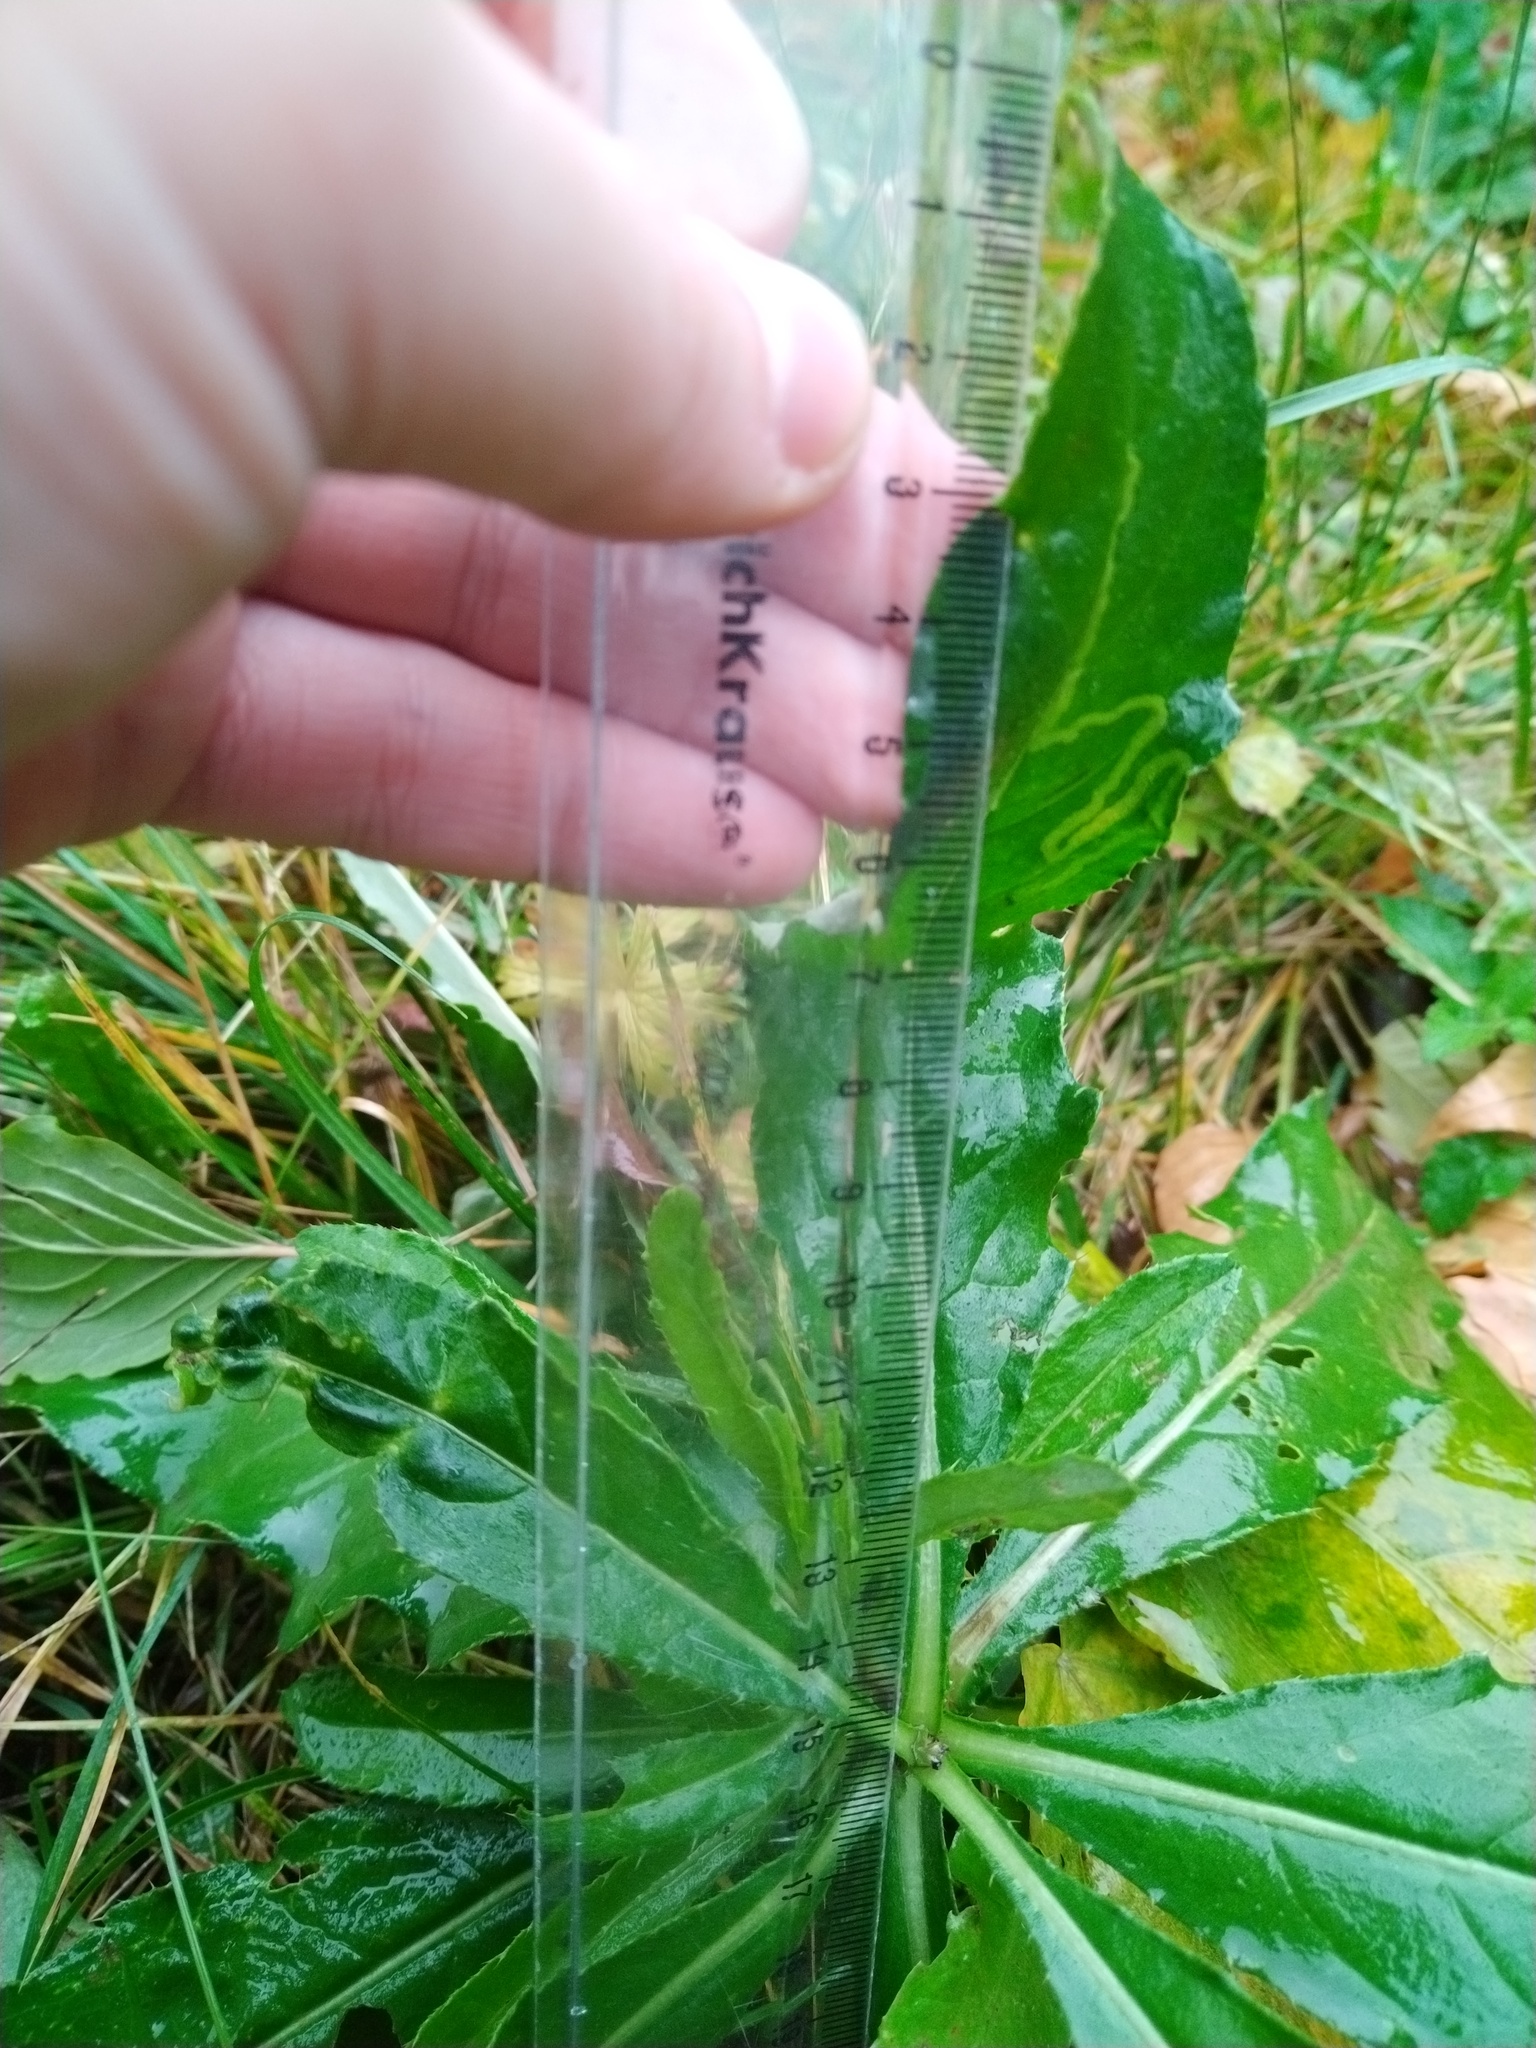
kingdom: Plantae
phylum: Tracheophyta
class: Magnoliopsida
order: Asterales
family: Asteraceae
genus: Cirsium
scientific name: Cirsium arvense
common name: Creeping thistle
